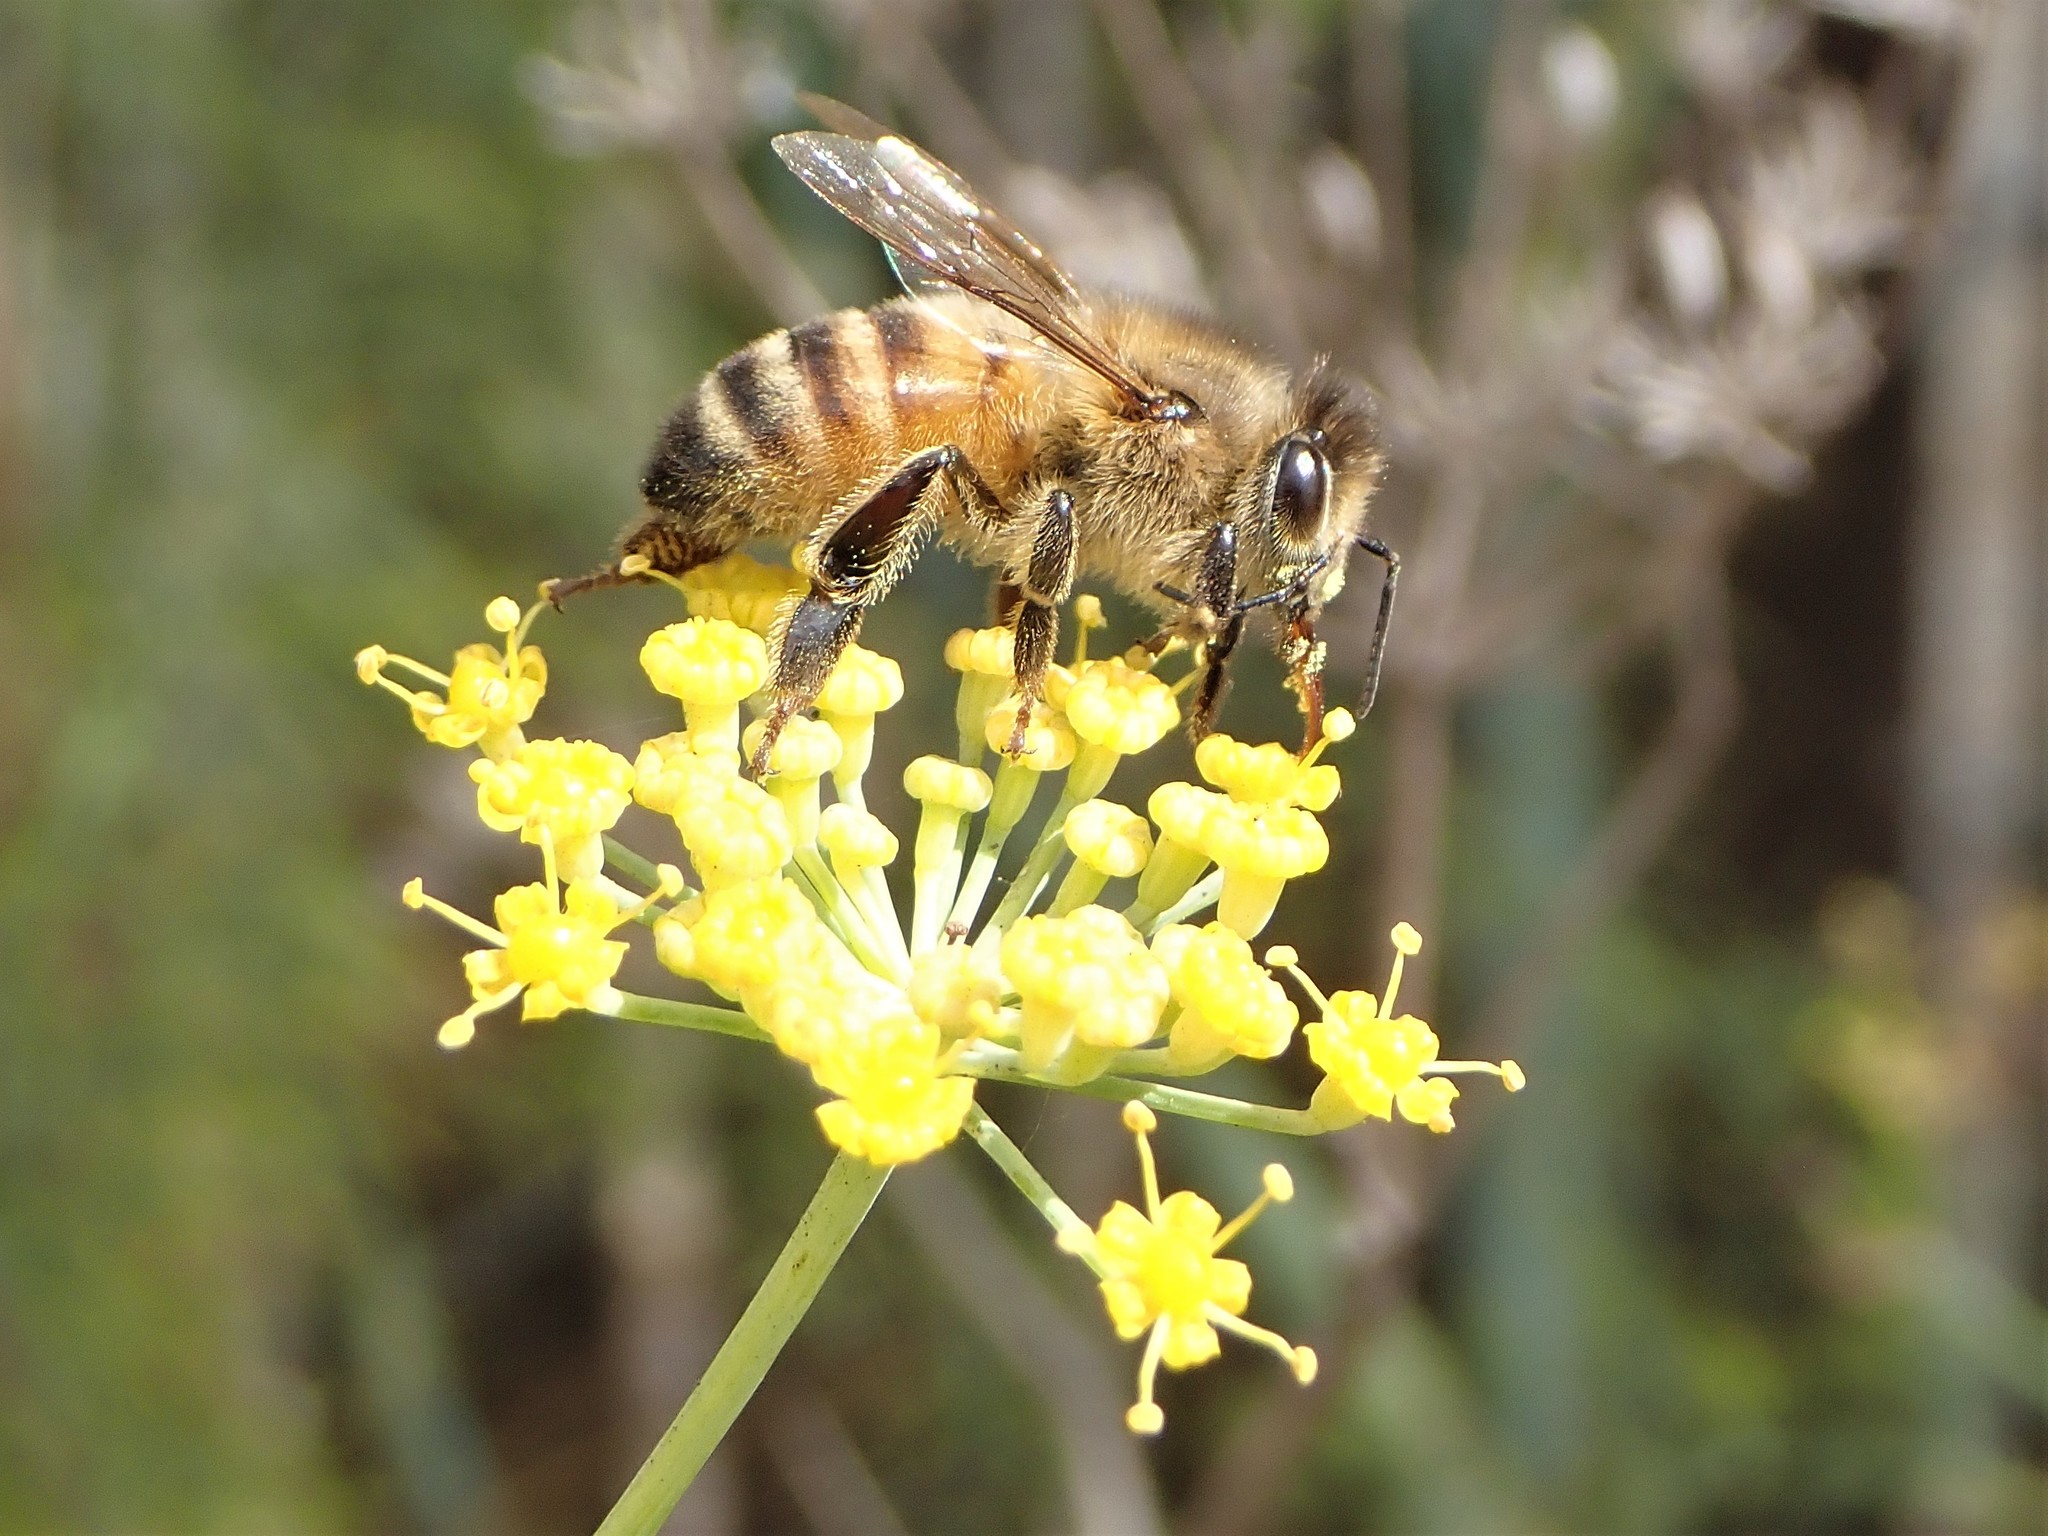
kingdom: Animalia
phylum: Arthropoda
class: Insecta
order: Hymenoptera
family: Apidae
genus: Apis
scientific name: Apis mellifera
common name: Honey bee
